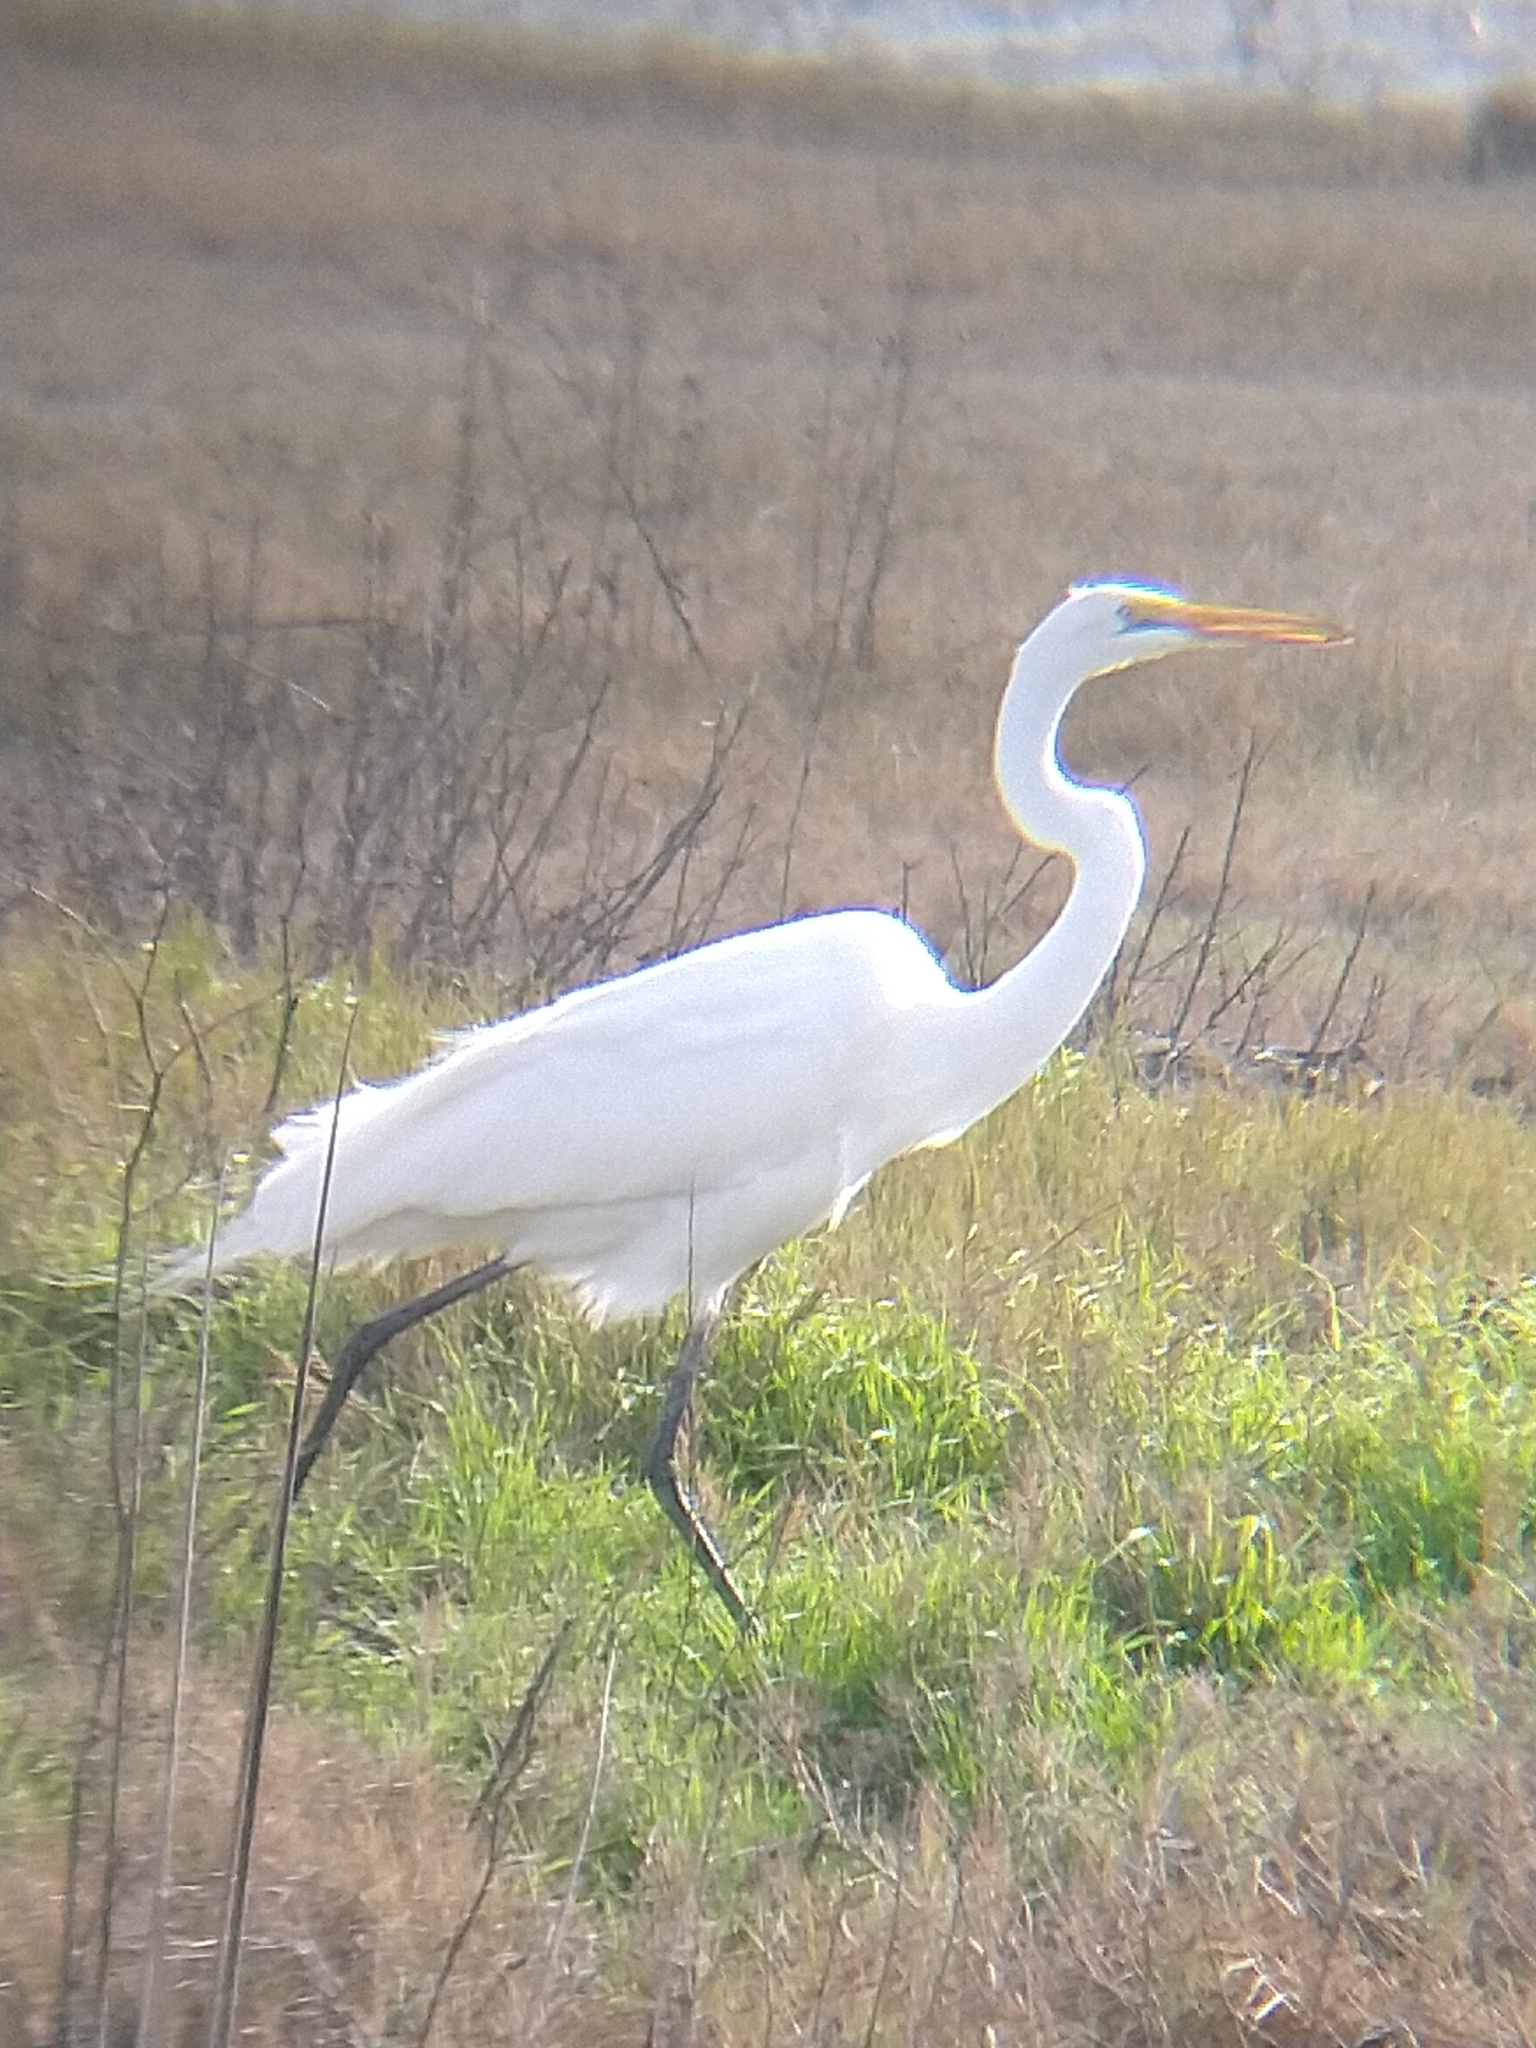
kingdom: Animalia
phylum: Chordata
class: Aves
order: Pelecaniformes
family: Ardeidae
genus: Ardea
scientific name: Ardea alba
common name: Great egret
